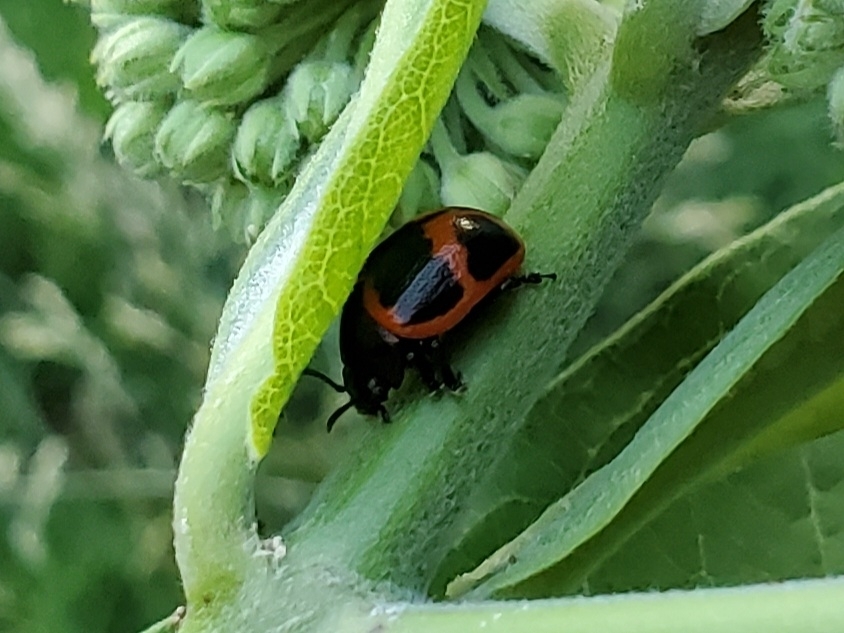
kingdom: Animalia
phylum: Arthropoda
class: Insecta
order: Coleoptera
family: Chrysomelidae
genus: Labidomera
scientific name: Labidomera clivicollis
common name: Swamp milkweed leaf beetle
